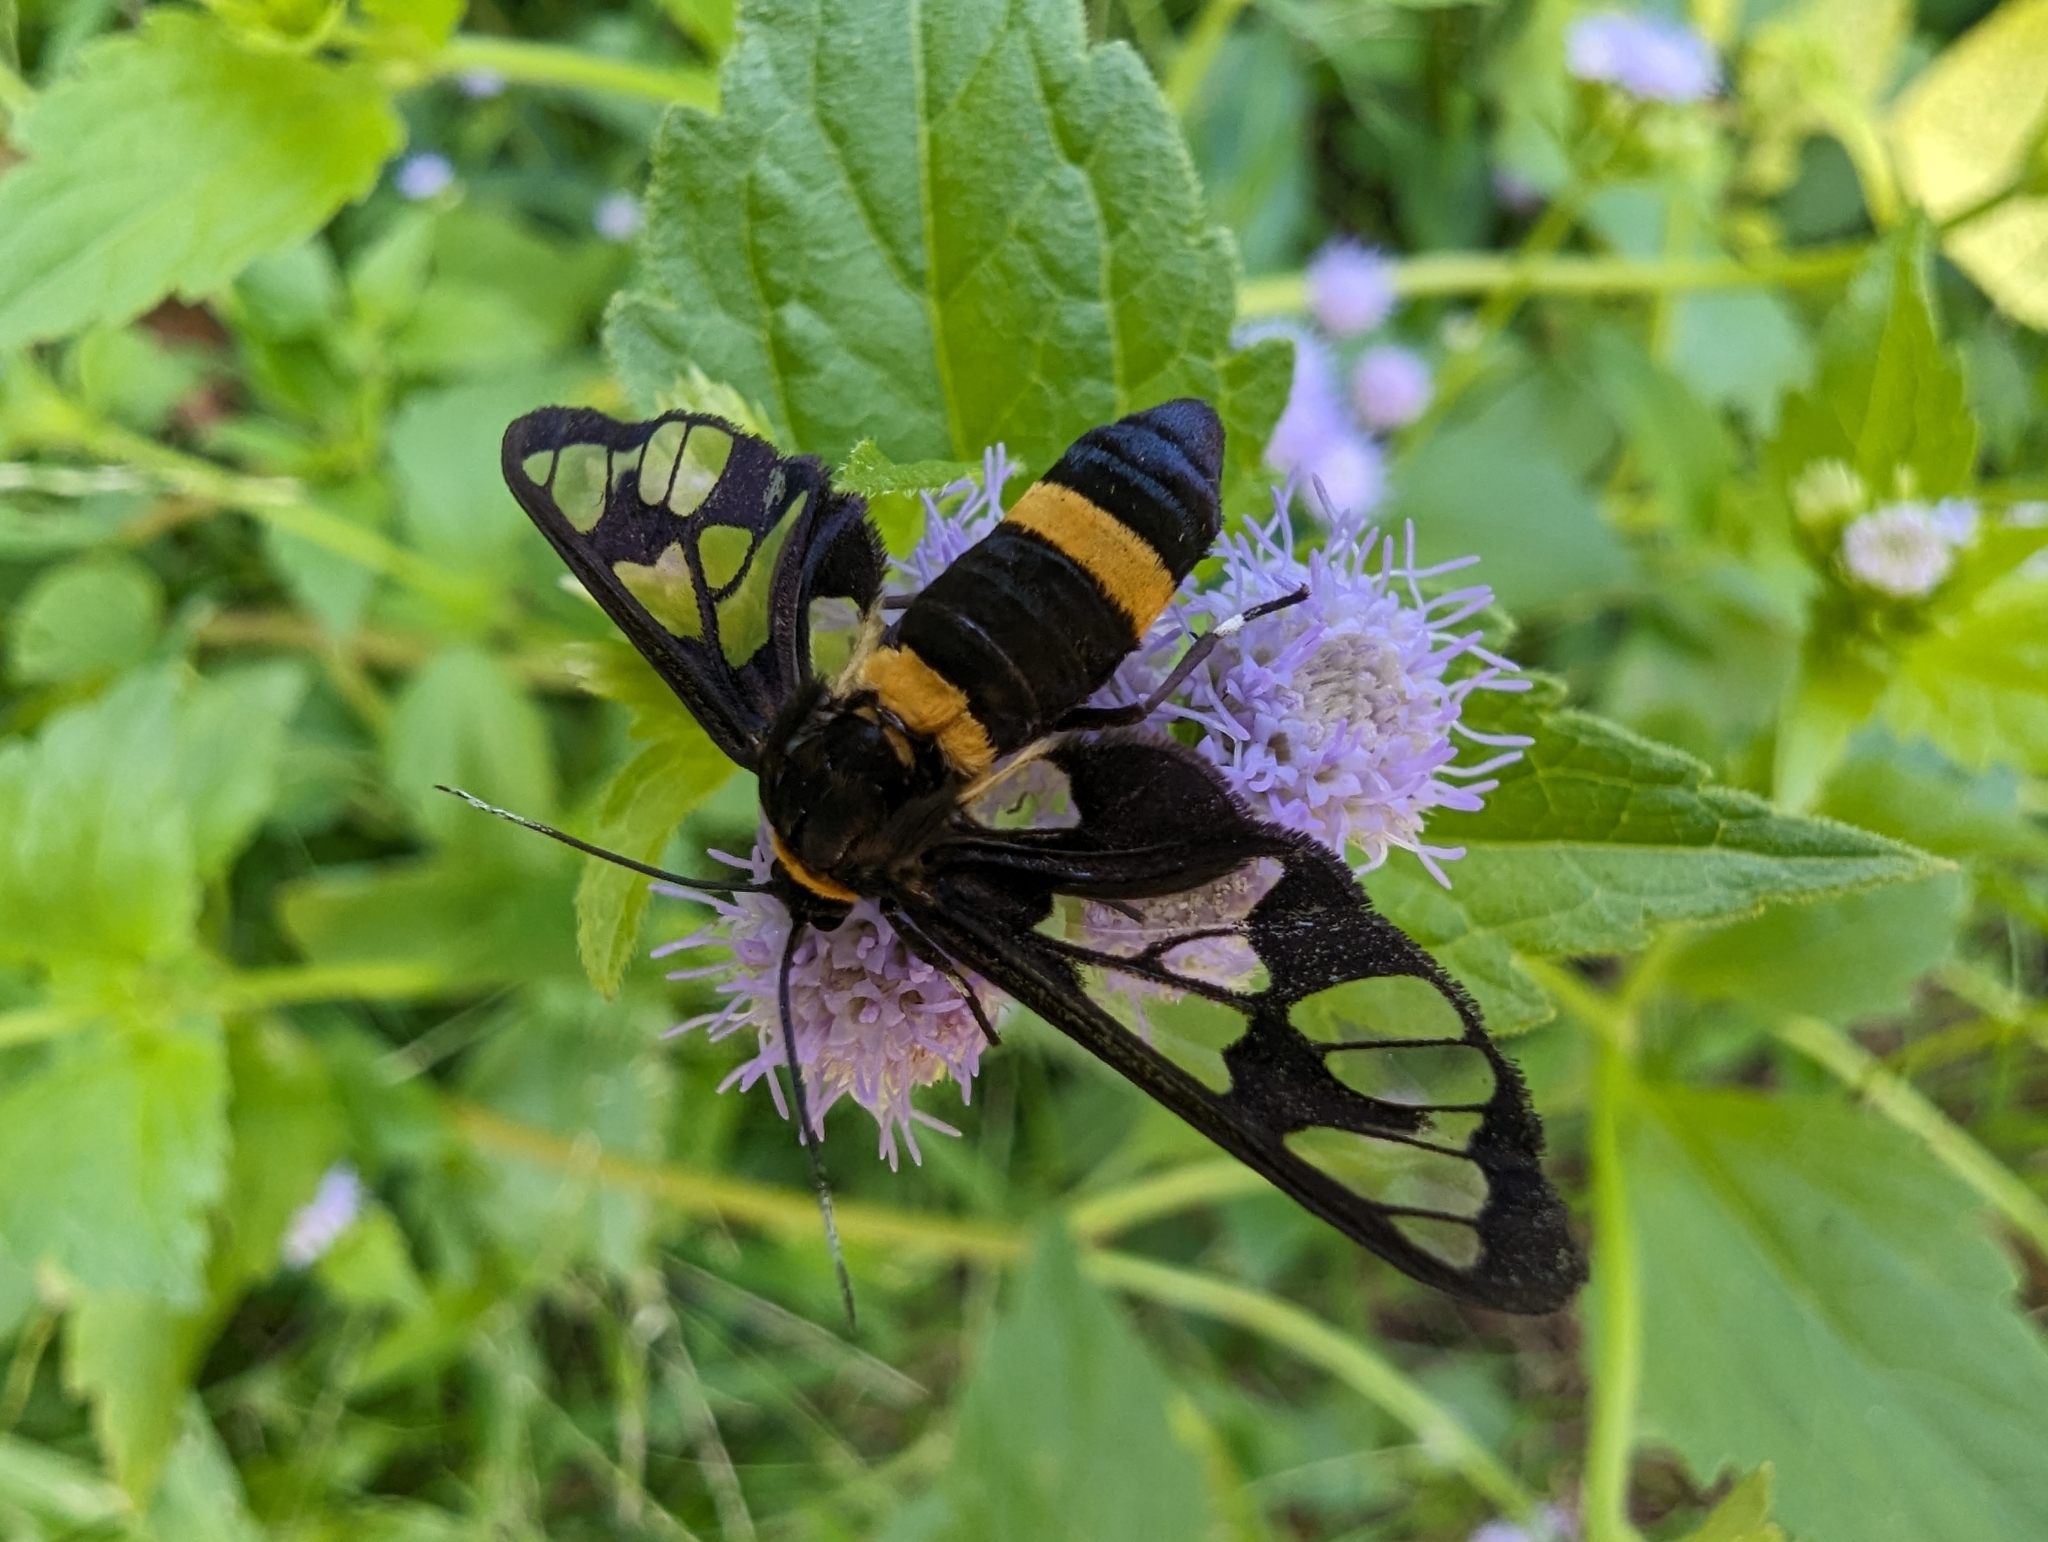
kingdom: Animalia
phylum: Arthropoda
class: Insecta
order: Lepidoptera
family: Erebidae
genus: Syntomoides
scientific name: Syntomoides imaon
